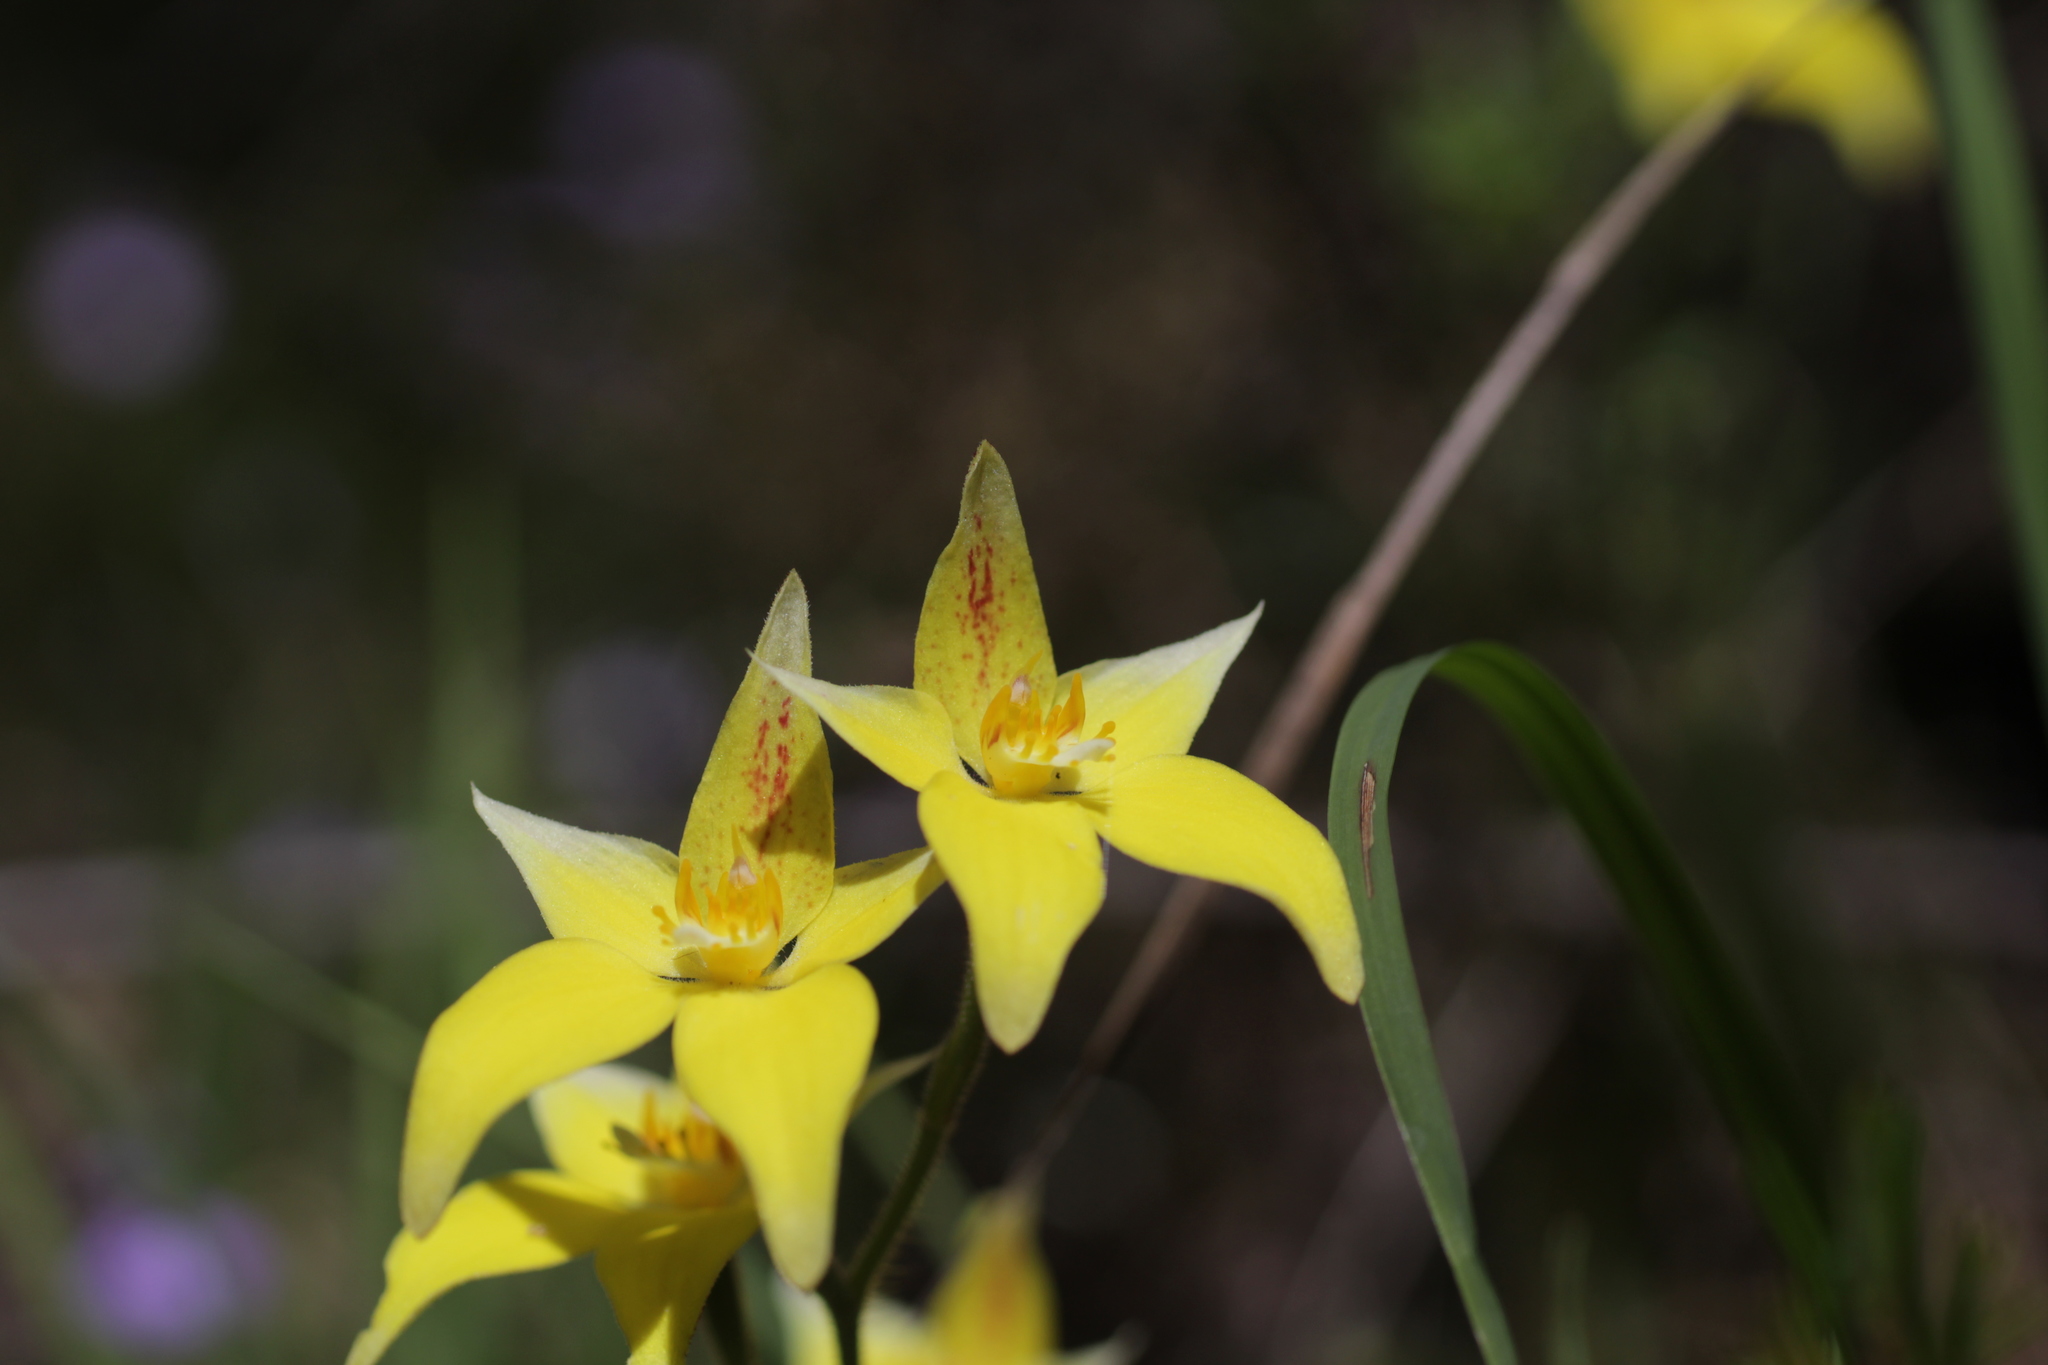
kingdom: Plantae
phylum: Tracheophyta
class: Liliopsida
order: Asparagales
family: Orchidaceae
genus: Caladenia
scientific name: Caladenia flava
